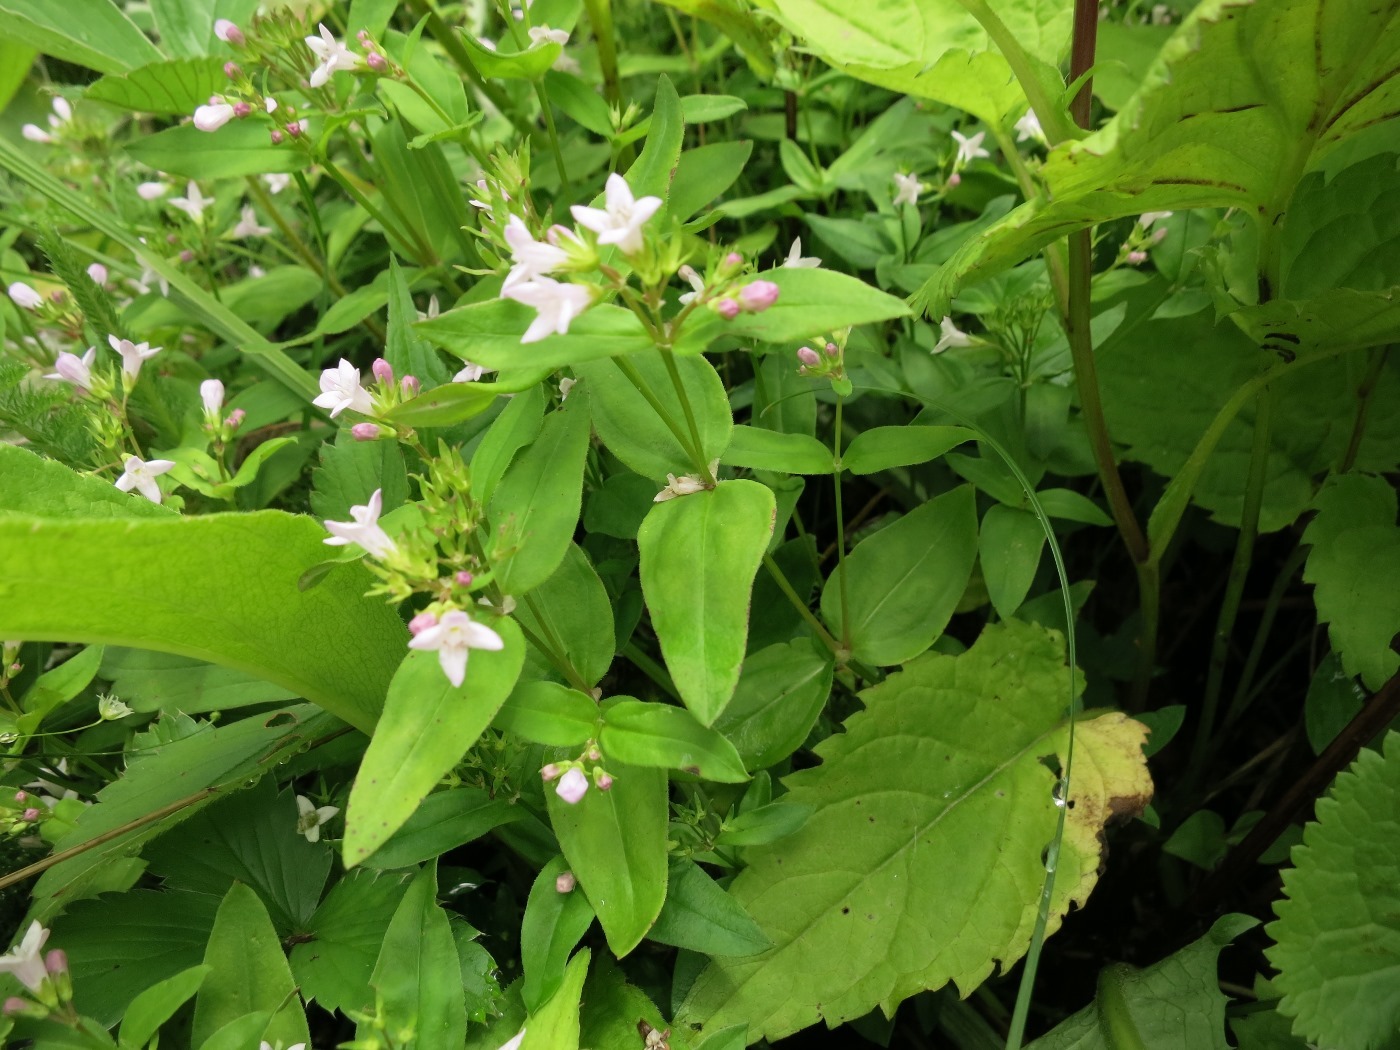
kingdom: Plantae
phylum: Tracheophyta
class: Magnoliopsida
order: Gentianales
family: Rubiaceae
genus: Houstonia
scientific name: Houstonia purpurea
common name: Summer bluet
